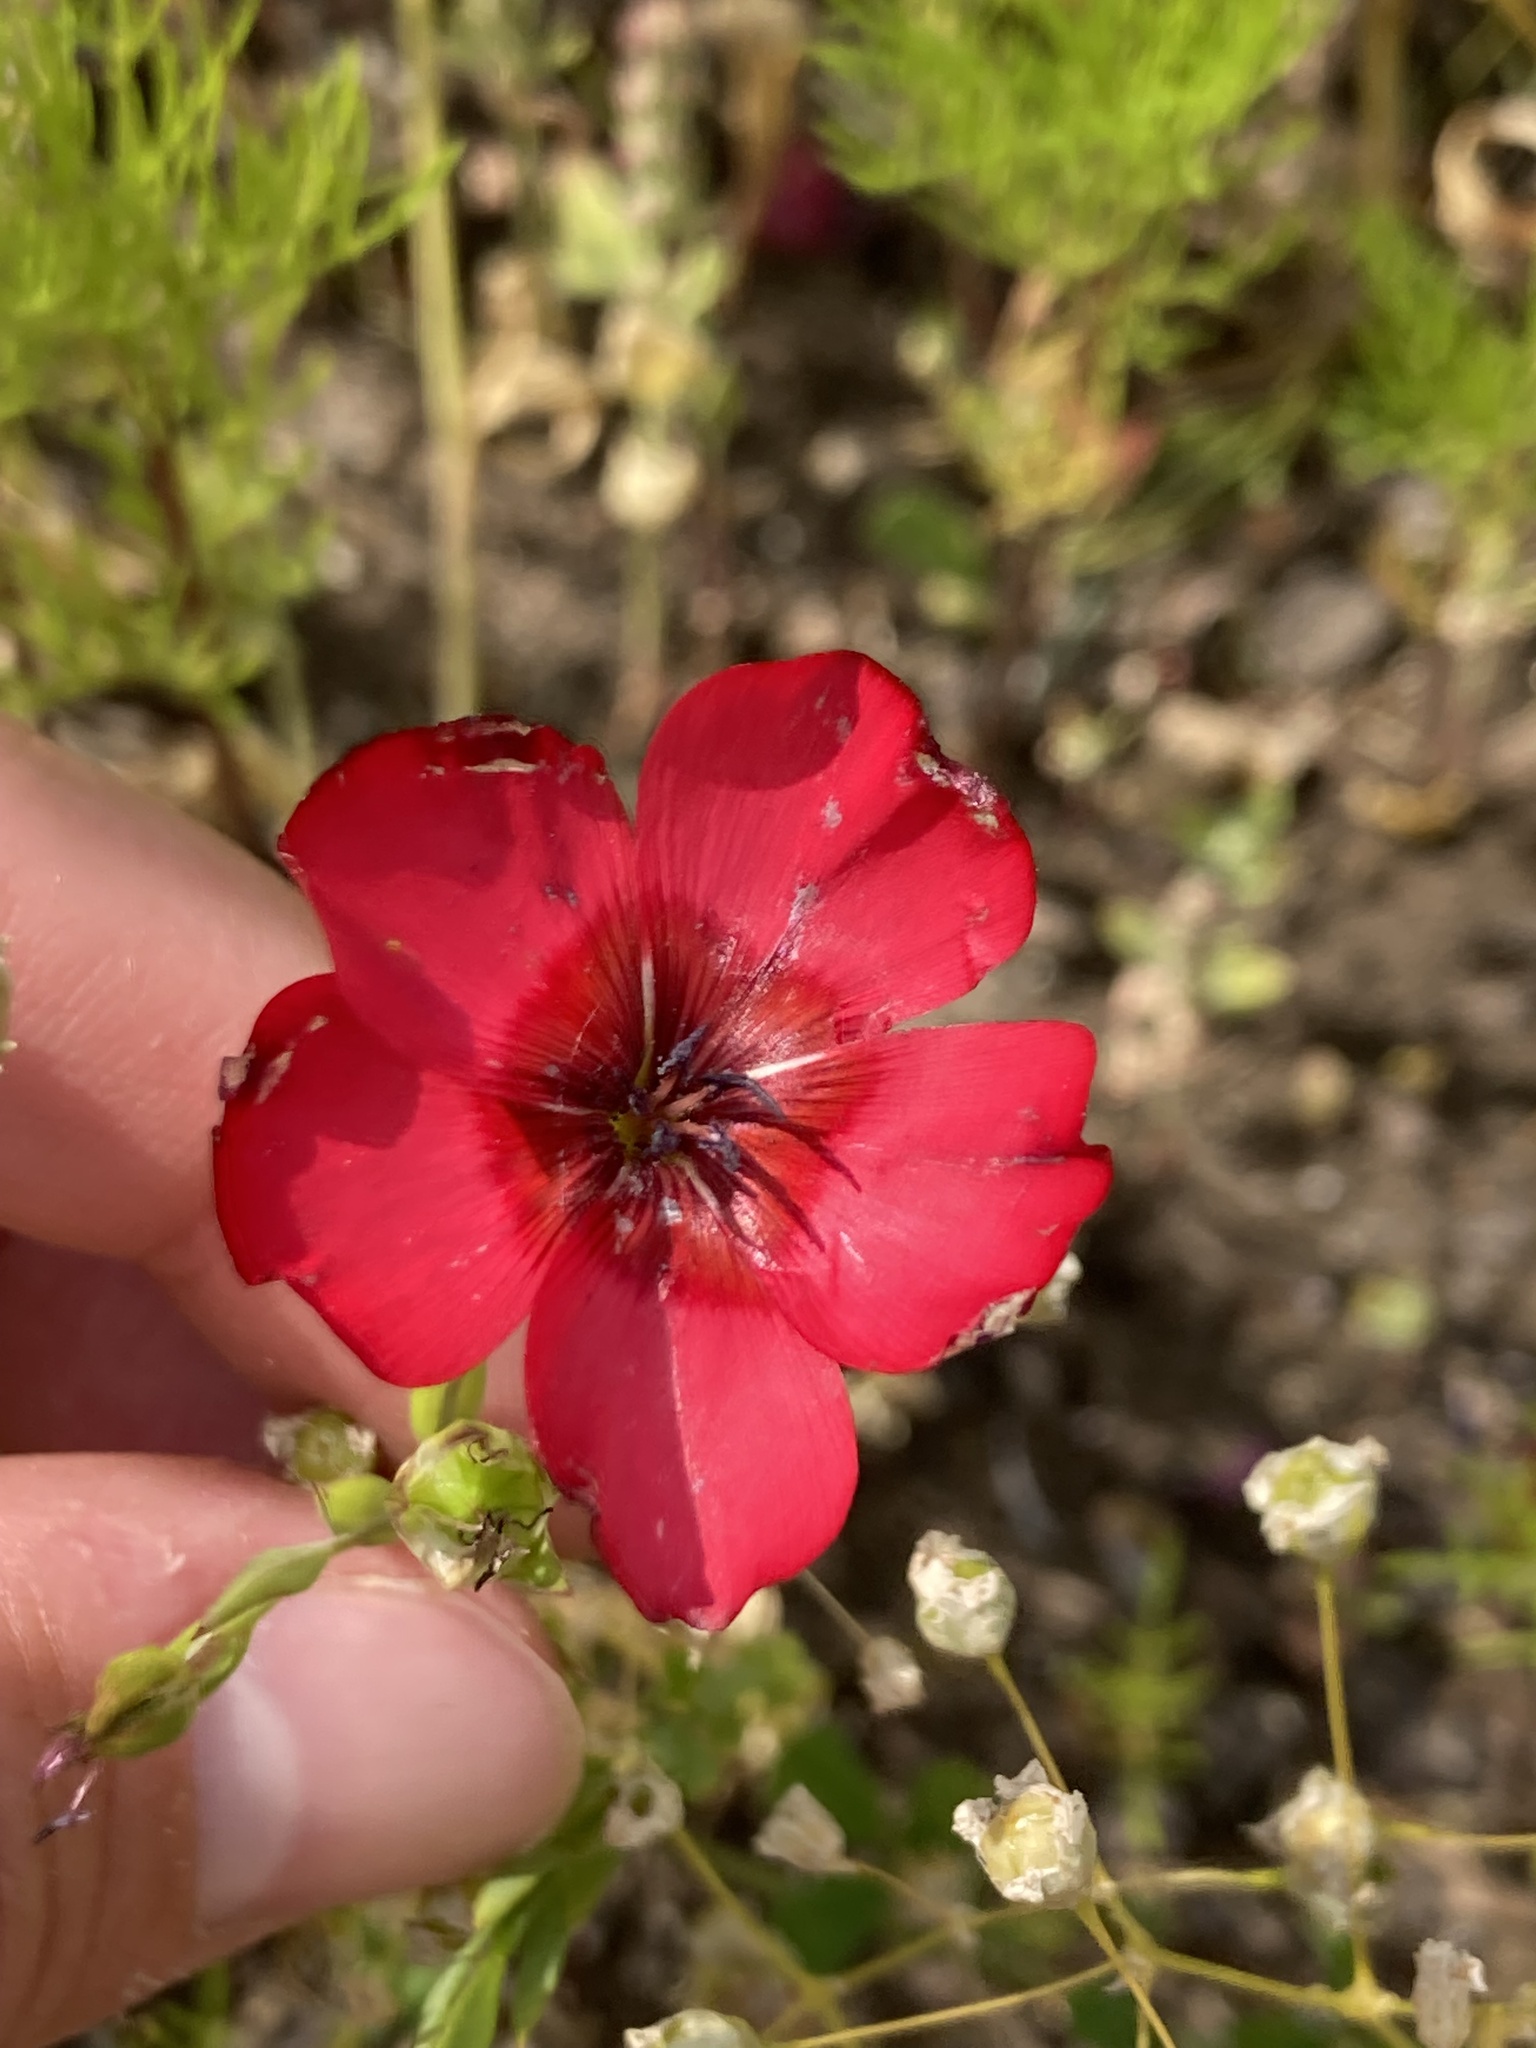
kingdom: Plantae
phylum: Tracheophyta
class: Magnoliopsida
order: Malpighiales
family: Linaceae
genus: Linum
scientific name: Linum grandiflorum
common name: Crimson flax
